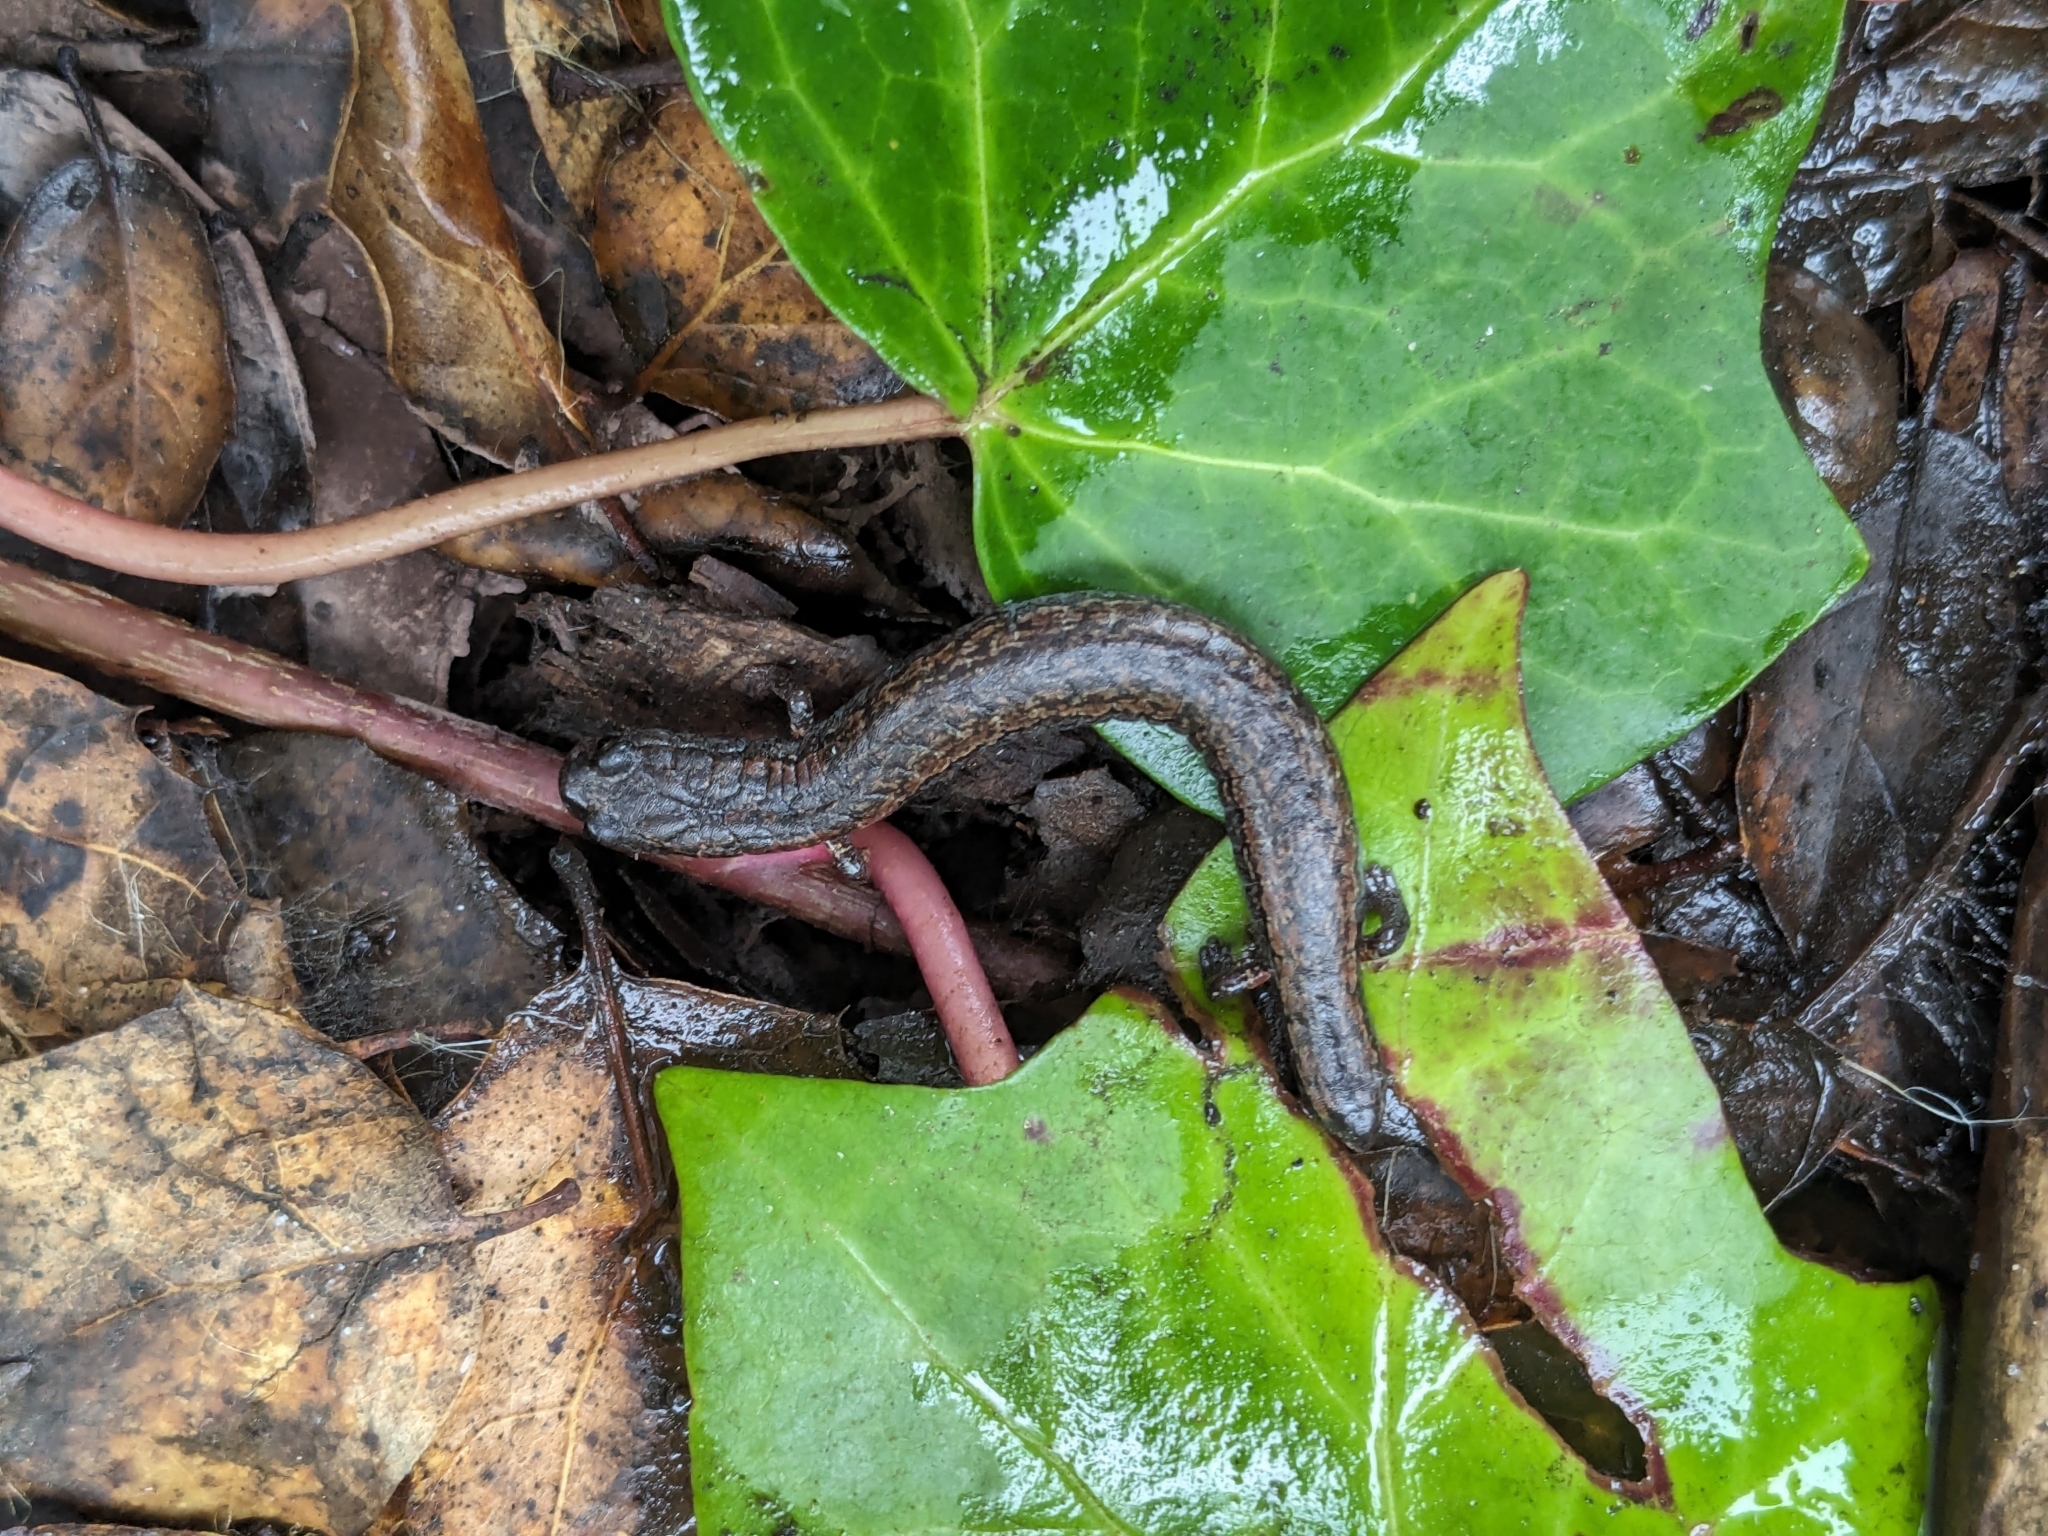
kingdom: Animalia
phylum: Chordata
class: Amphibia
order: Caudata
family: Plethodontidae
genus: Batrachoseps
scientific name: Batrachoseps attenuatus
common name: California slender salamander
